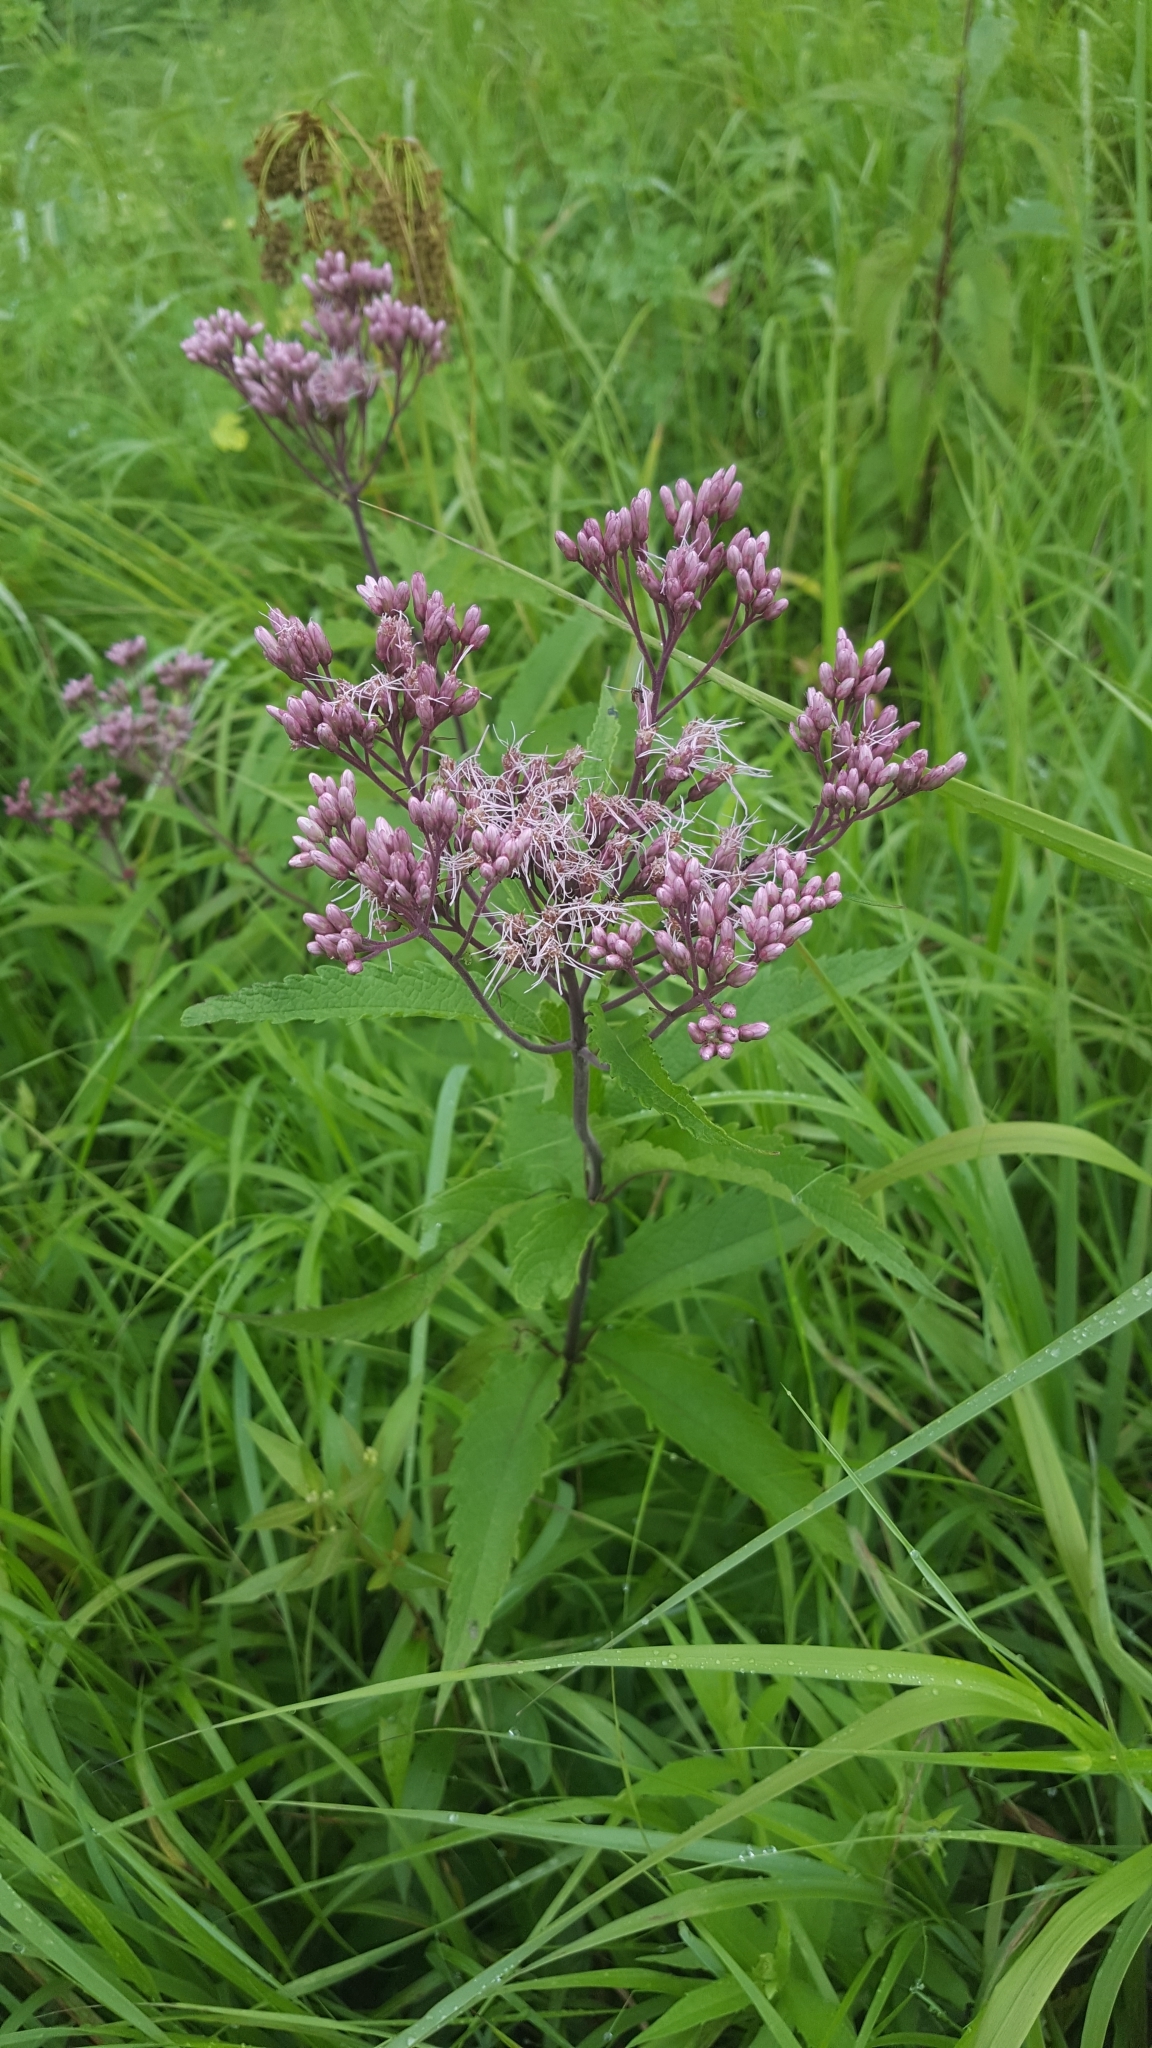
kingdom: Plantae
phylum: Tracheophyta
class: Magnoliopsida
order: Asterales
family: Asteraceae
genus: Eutrochium
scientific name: Eutrochium maculatum
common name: Spotted joe pye weed
